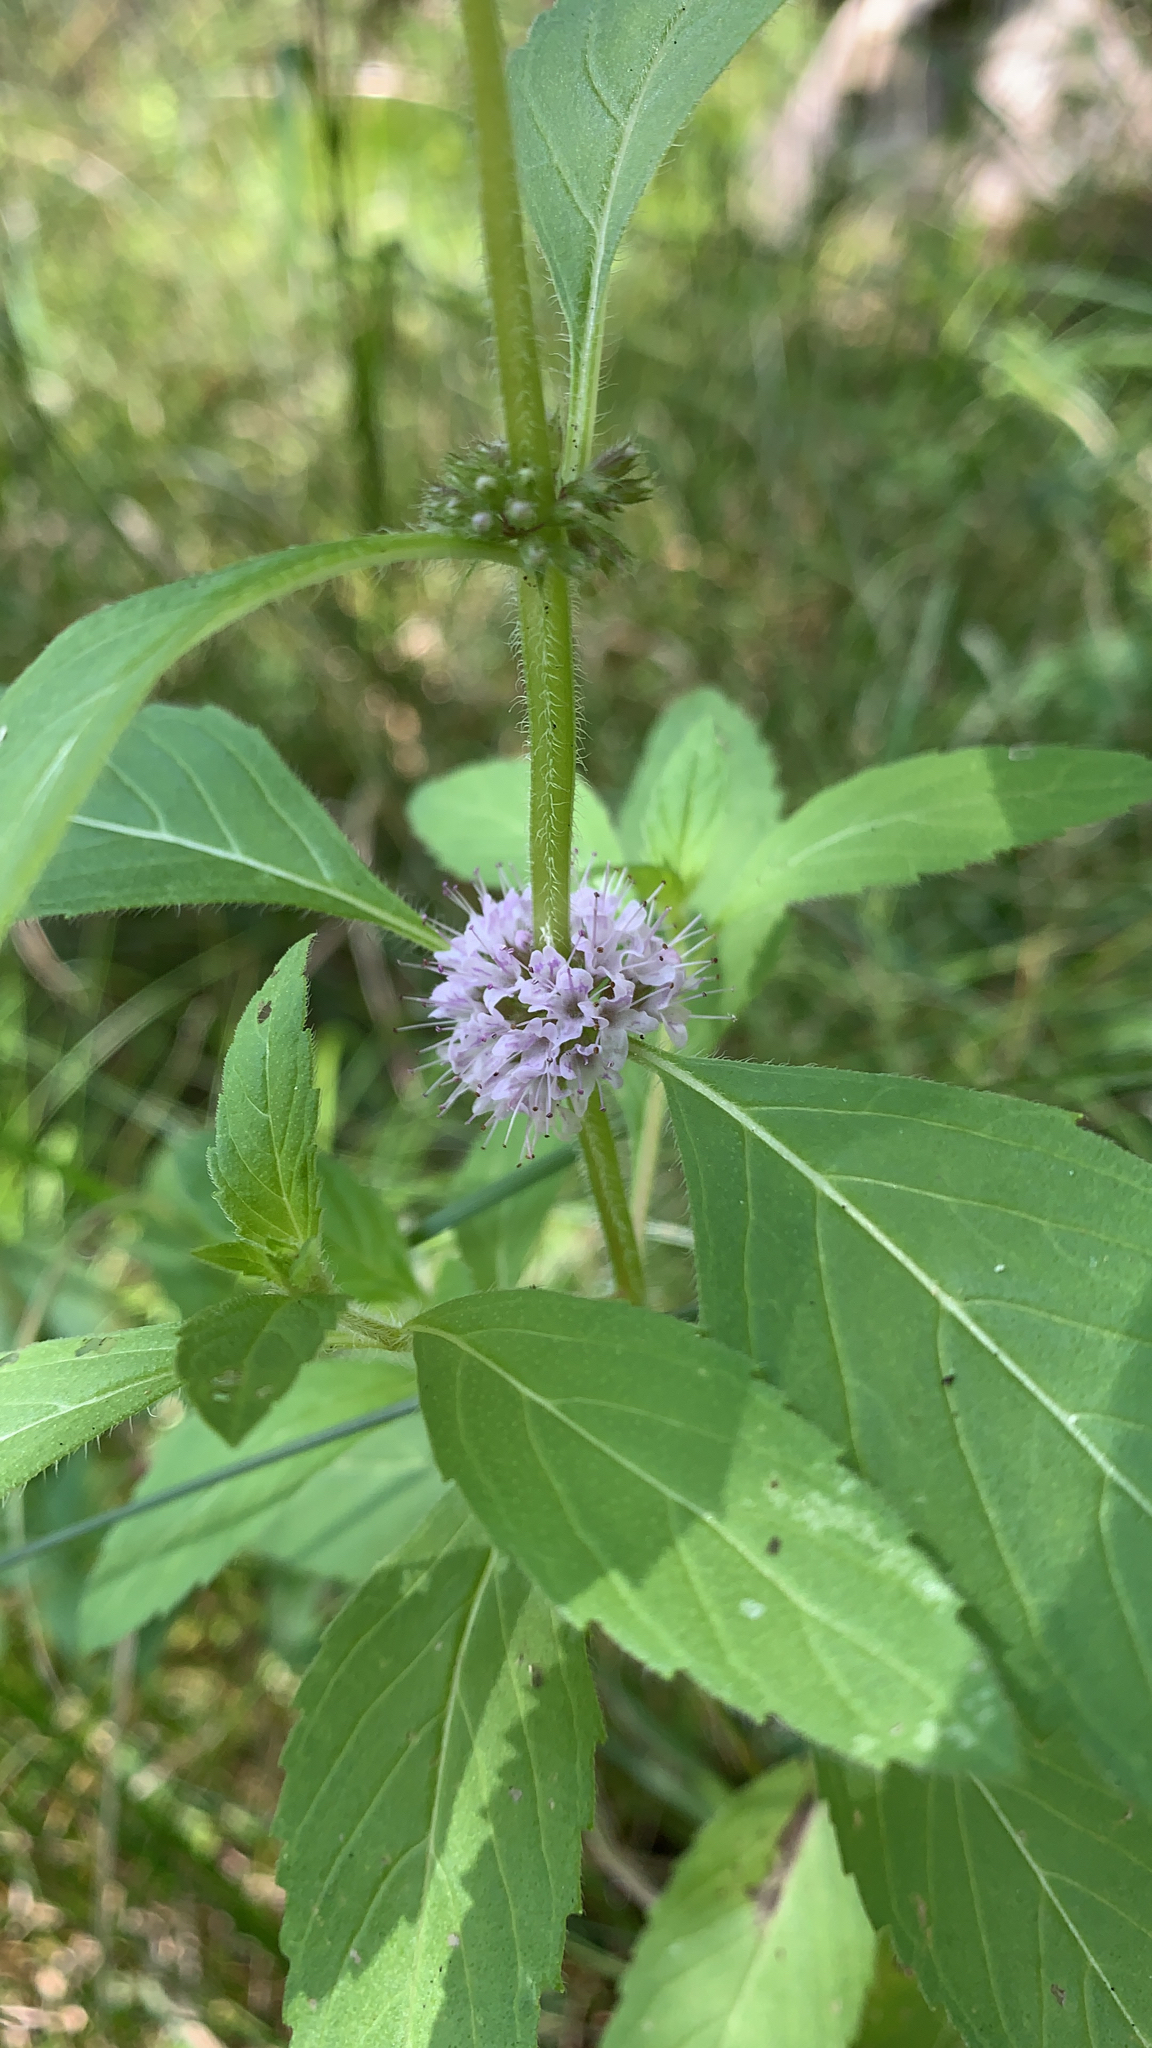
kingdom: Plantae
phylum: Tracheophyta
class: Magnoliopsida
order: Lamiales
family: Lamiaceae
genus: Mentha
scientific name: Mentha canadensis
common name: American corn mint
